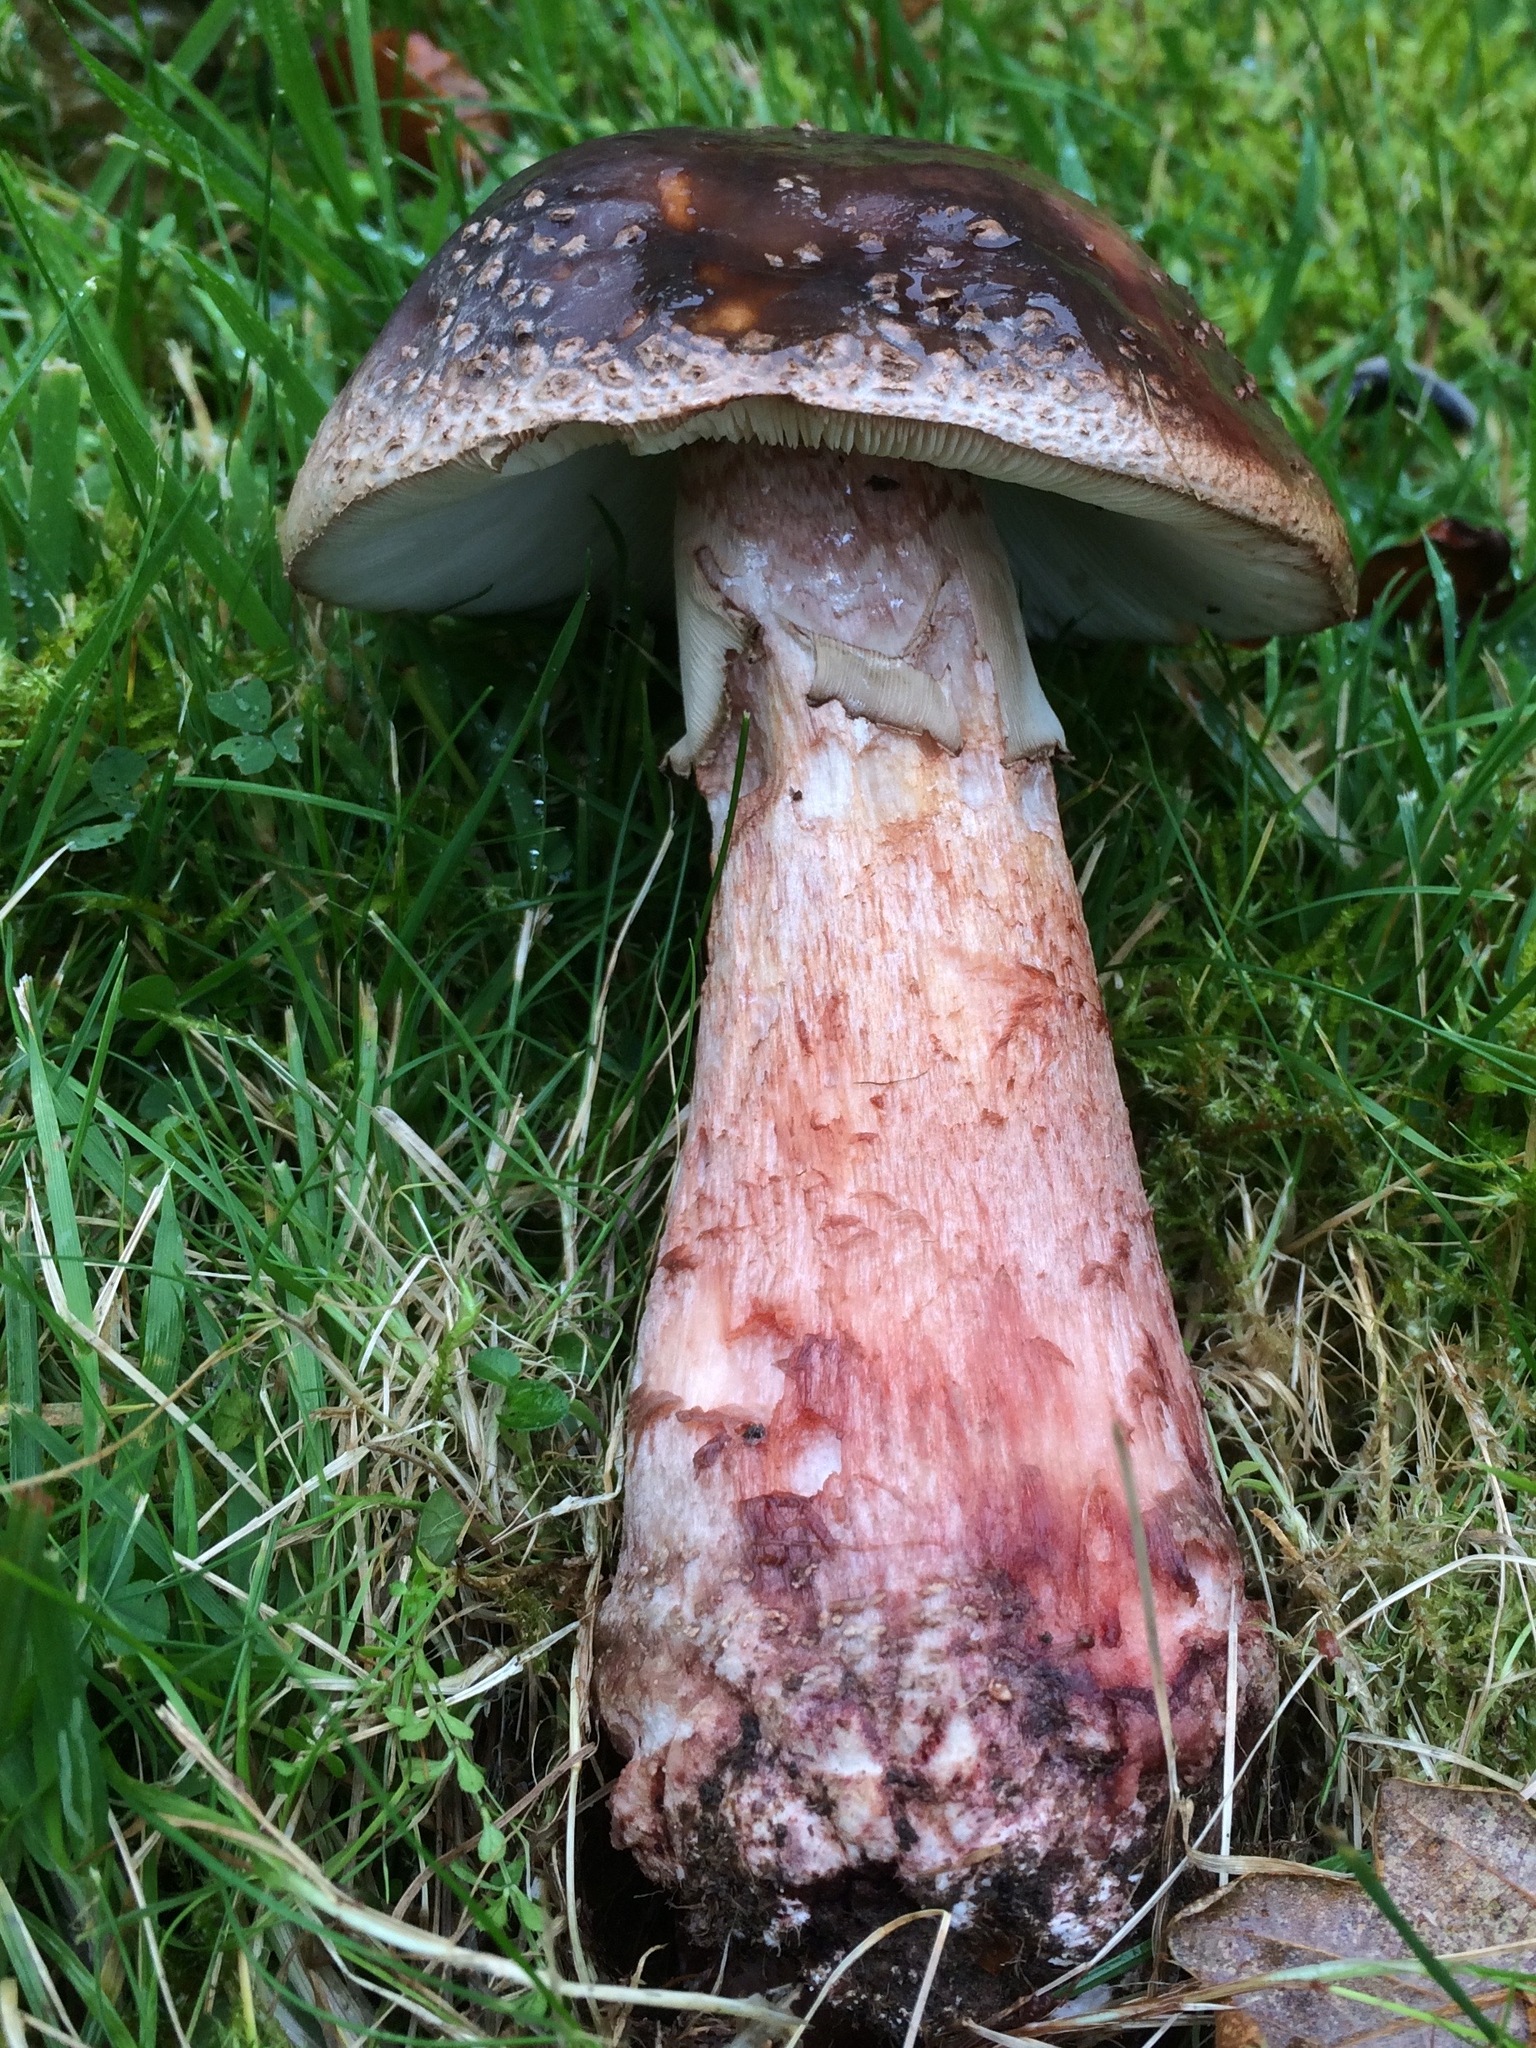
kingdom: Fungi
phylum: Basidiomycota
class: Agaricomycetes
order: Agaricales
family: Amanitaceae
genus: Amanita
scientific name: Amanita rubescens
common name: Blusher
